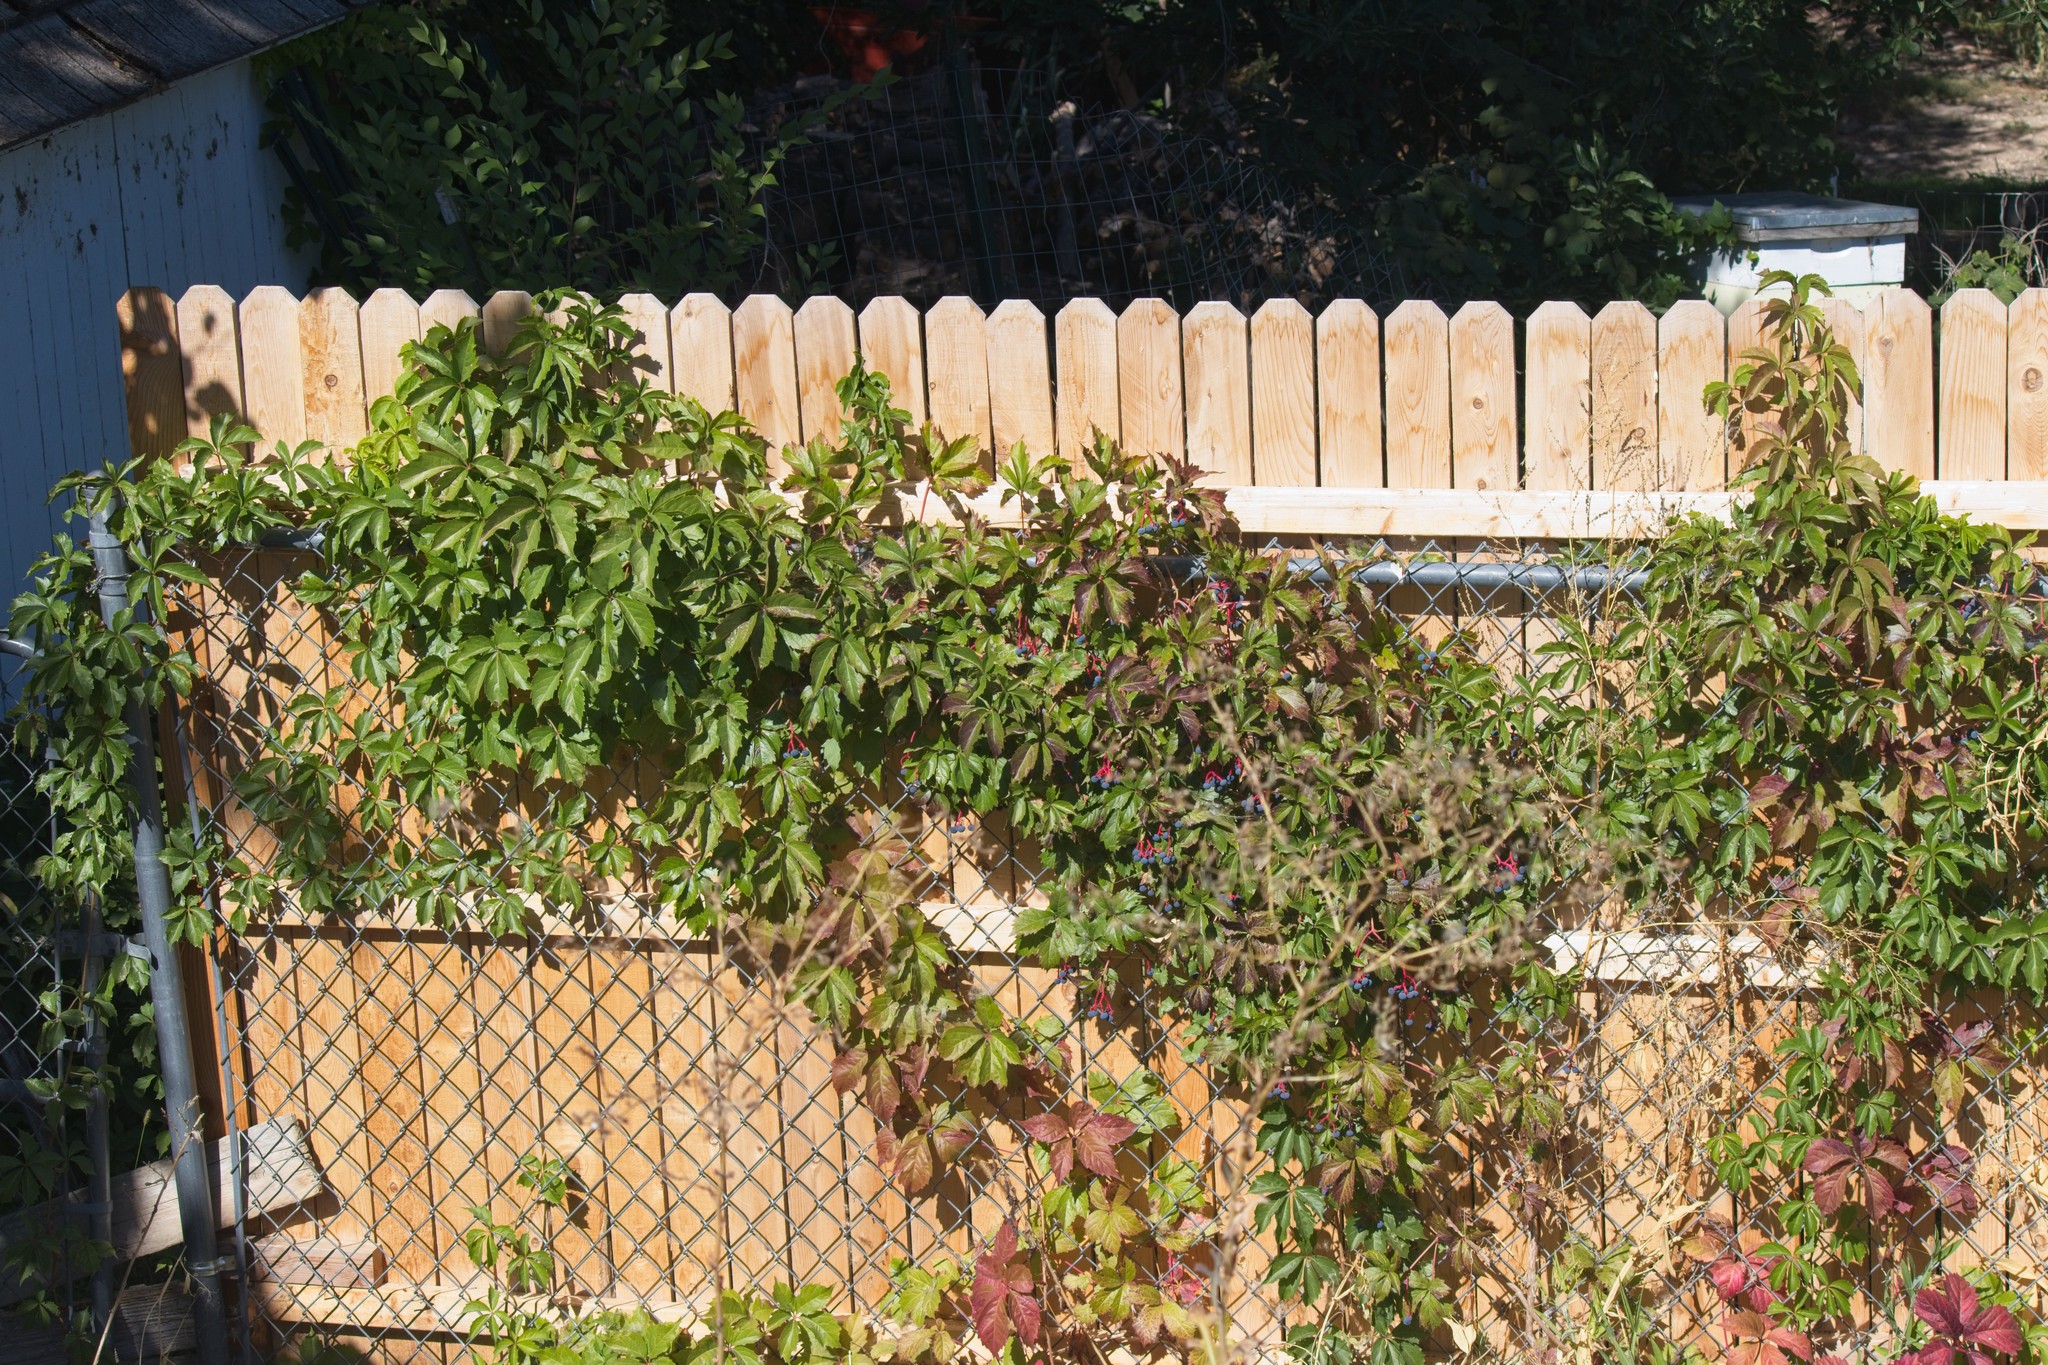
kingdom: Plantae
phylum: Tracheophyta
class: Magnoliopsida
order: Vitales
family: Vitaceae
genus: Parthenocissus
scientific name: Parthenocissus quinquefolia
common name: Virginia-creeper
